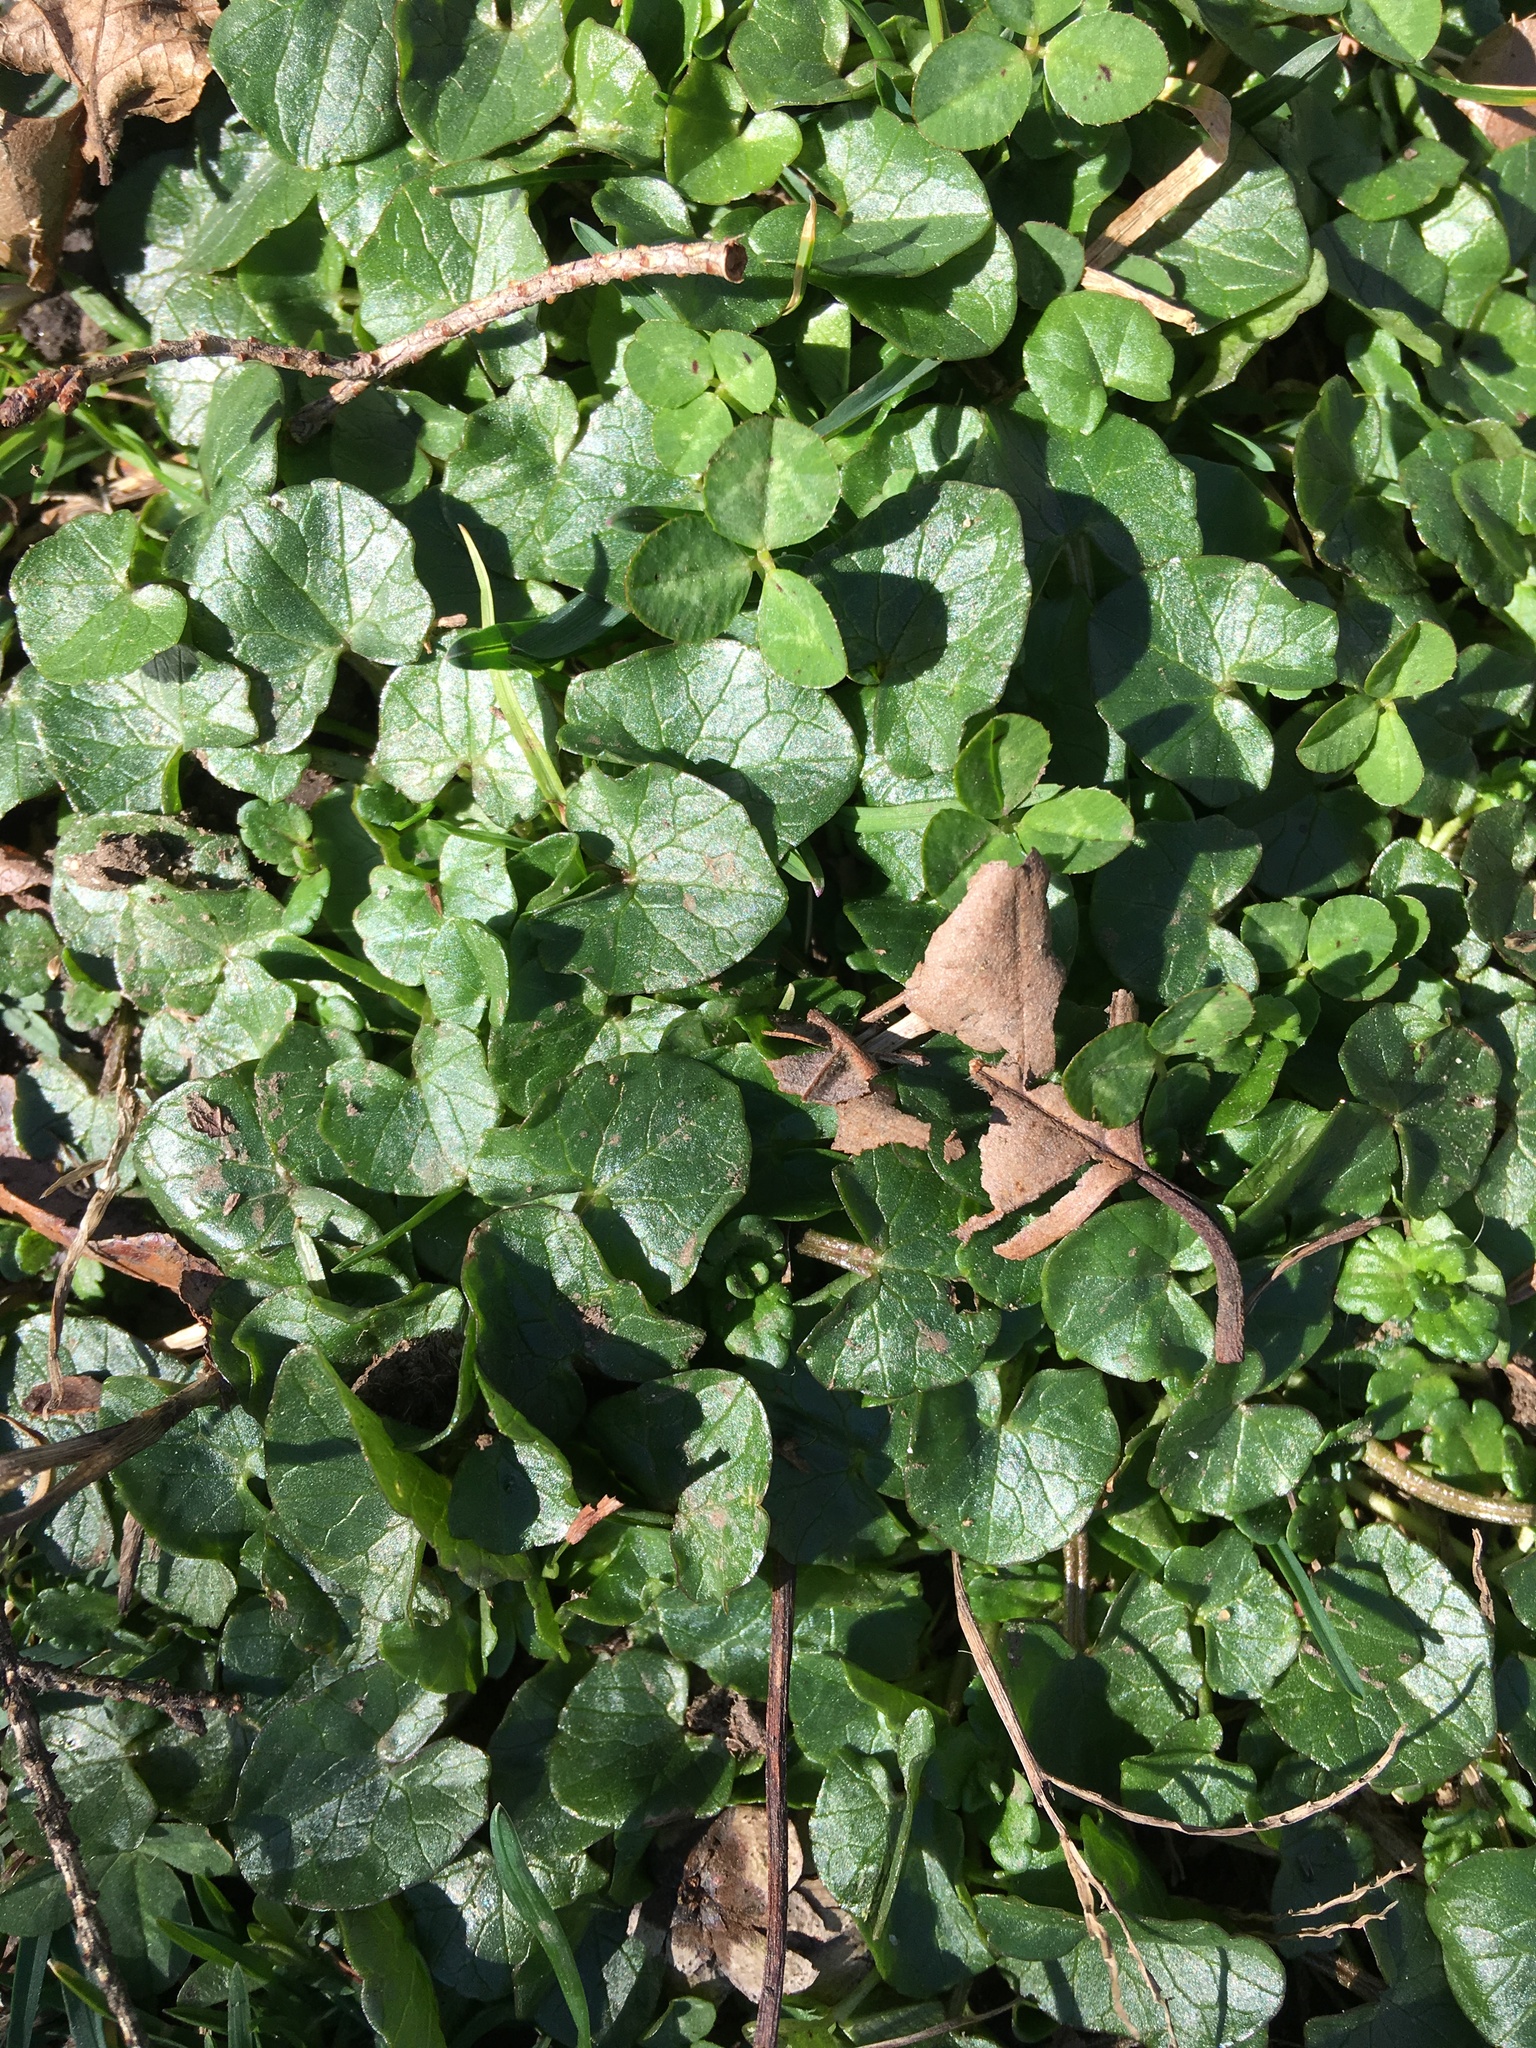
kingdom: Plantae
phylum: Tracheophyta
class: Magnoliopsida
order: Ranunculales
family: Ranunculaceae
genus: Ficaria
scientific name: Ficaria verna
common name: Lesser celandine
